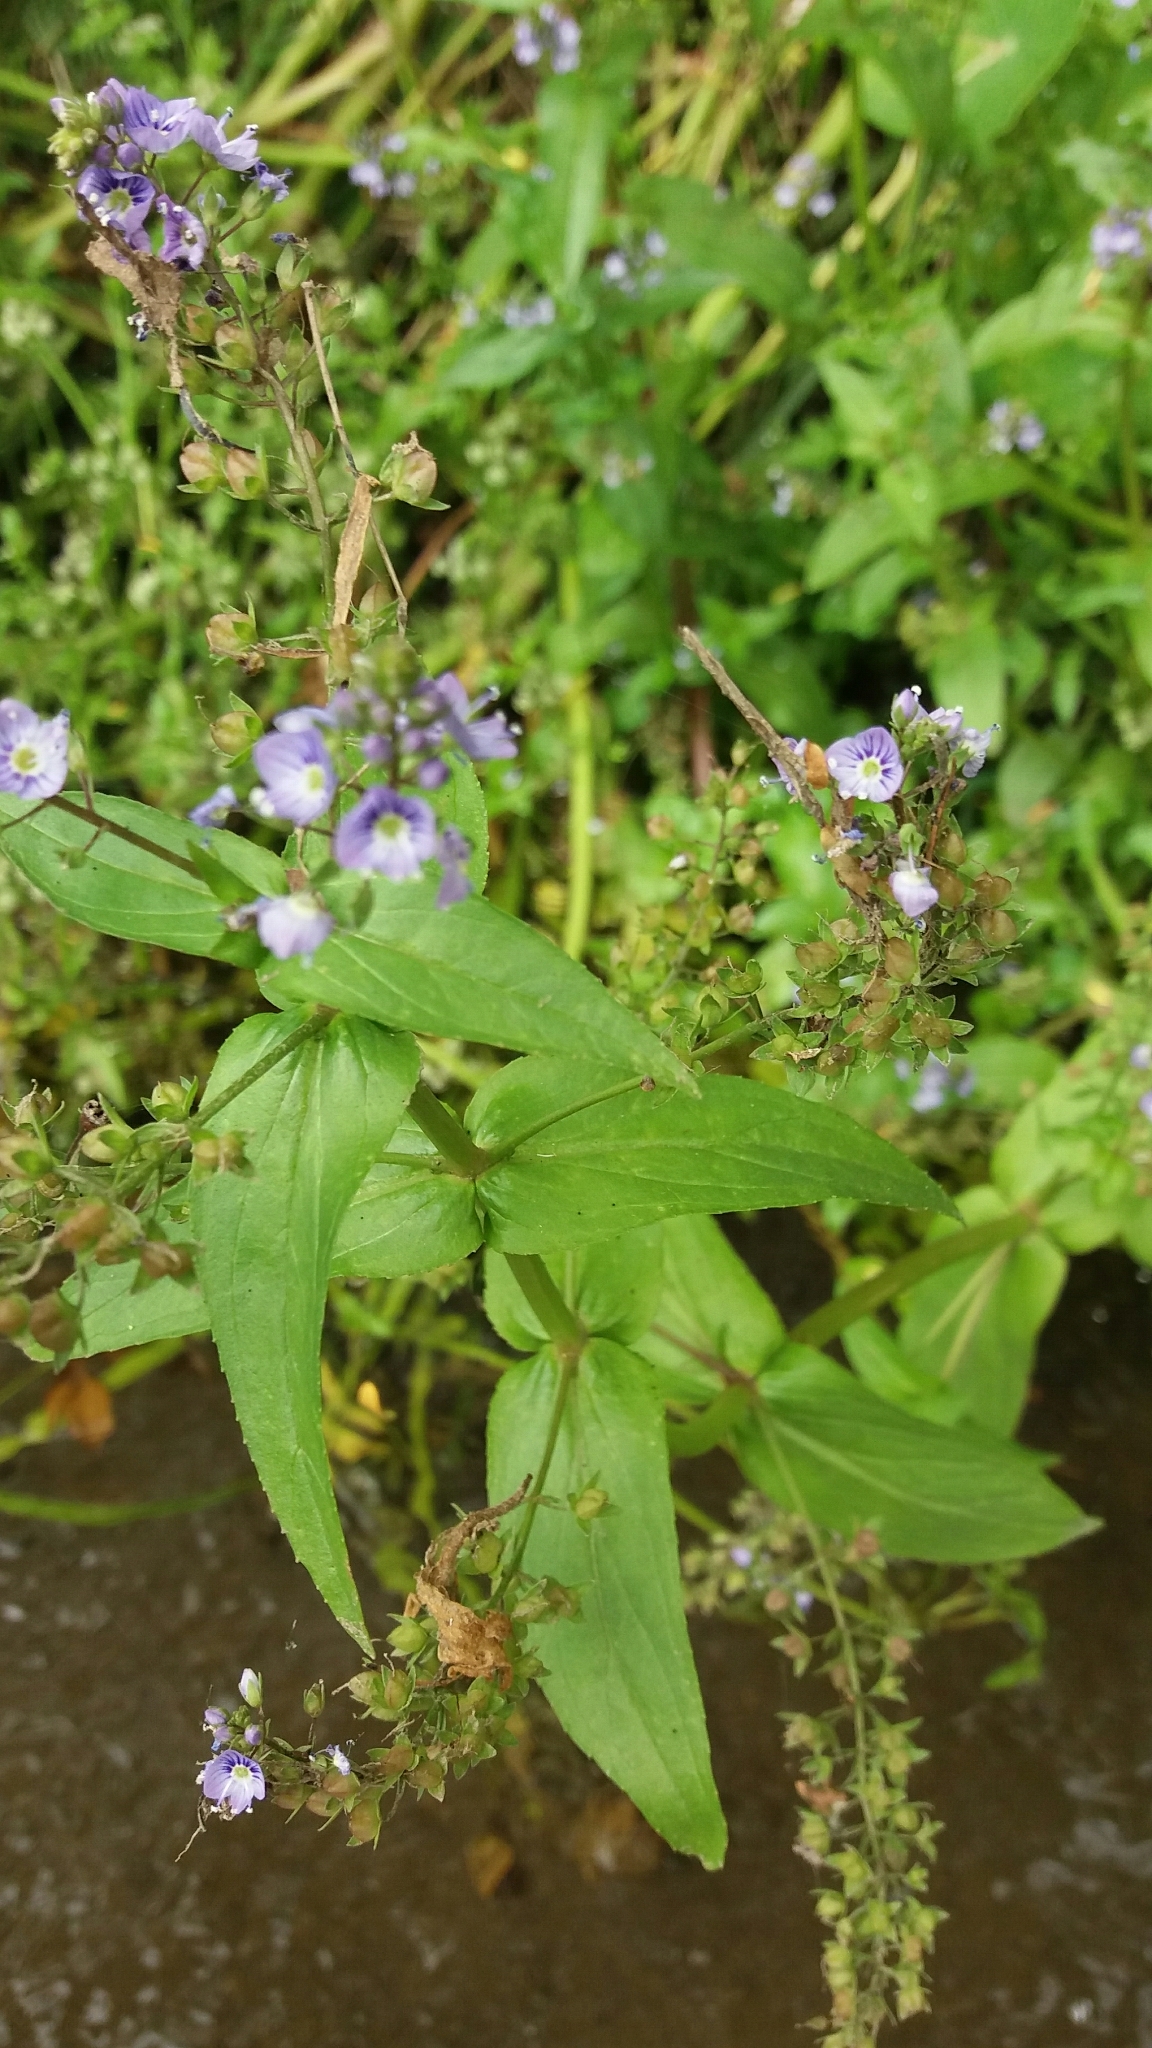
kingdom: Plantae
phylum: Tracheophyta
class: Magnoliopsida
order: Lamiales
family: Plantaginaceae
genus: Veronica
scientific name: Veronica anagallis-aquatica
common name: Water speedwell
